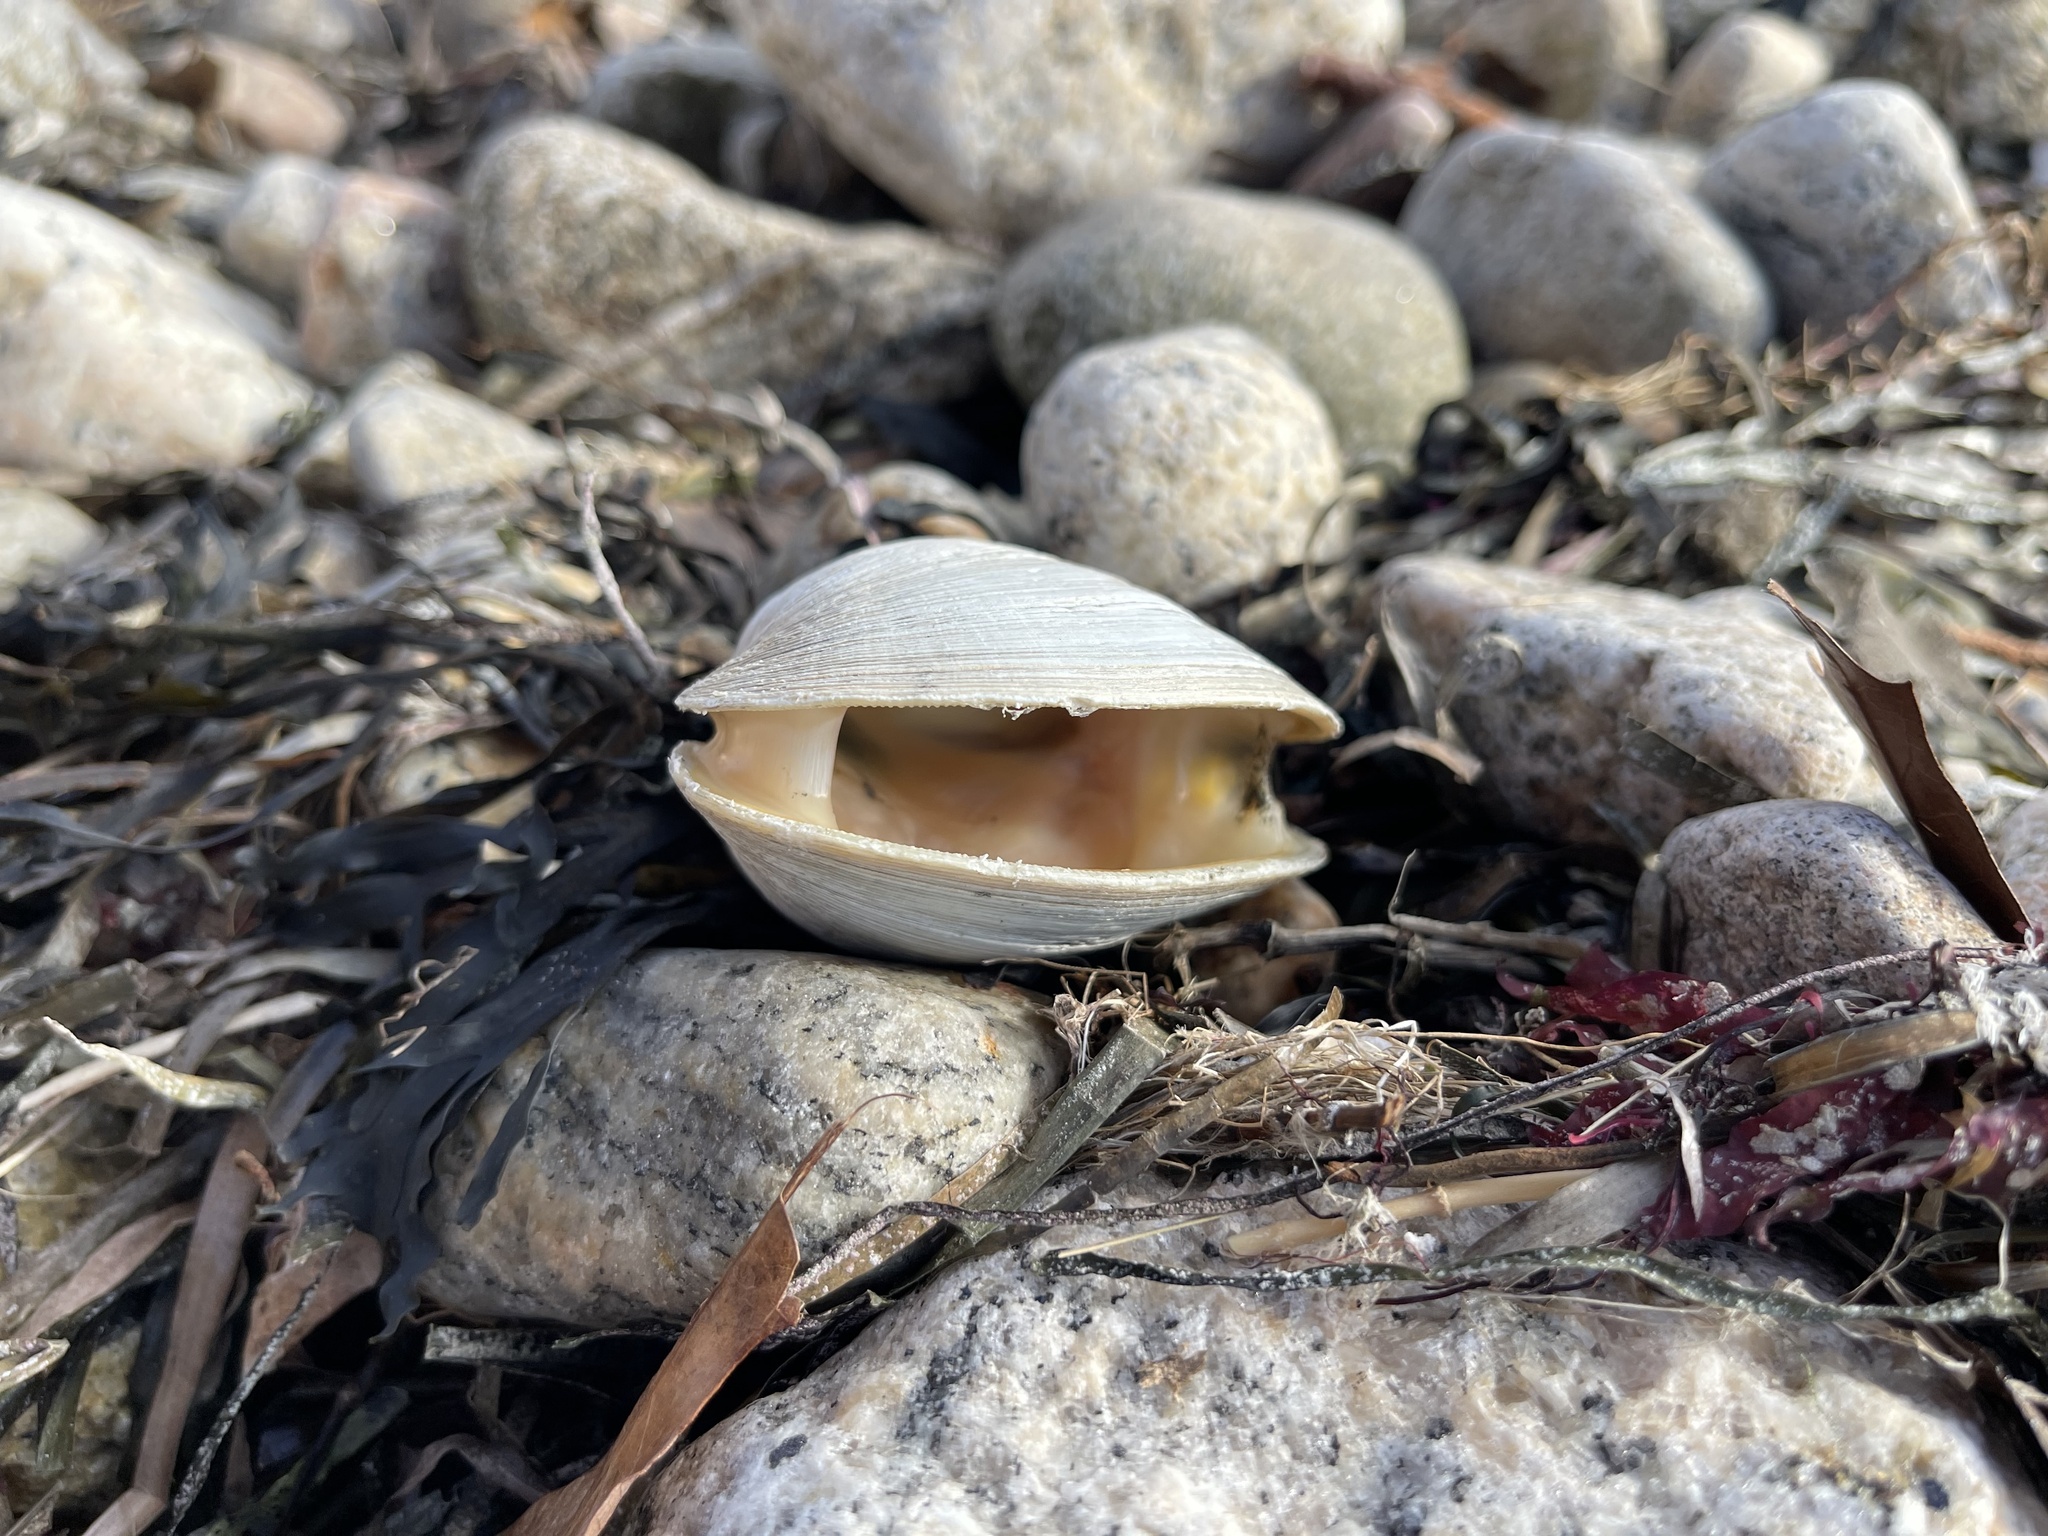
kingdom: Animalia
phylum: Mollusca
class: Bivalvia
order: Venerida
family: Veneridae
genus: Mercenaria
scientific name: Mercenaria mercenaria
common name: American hard-shelled clam
